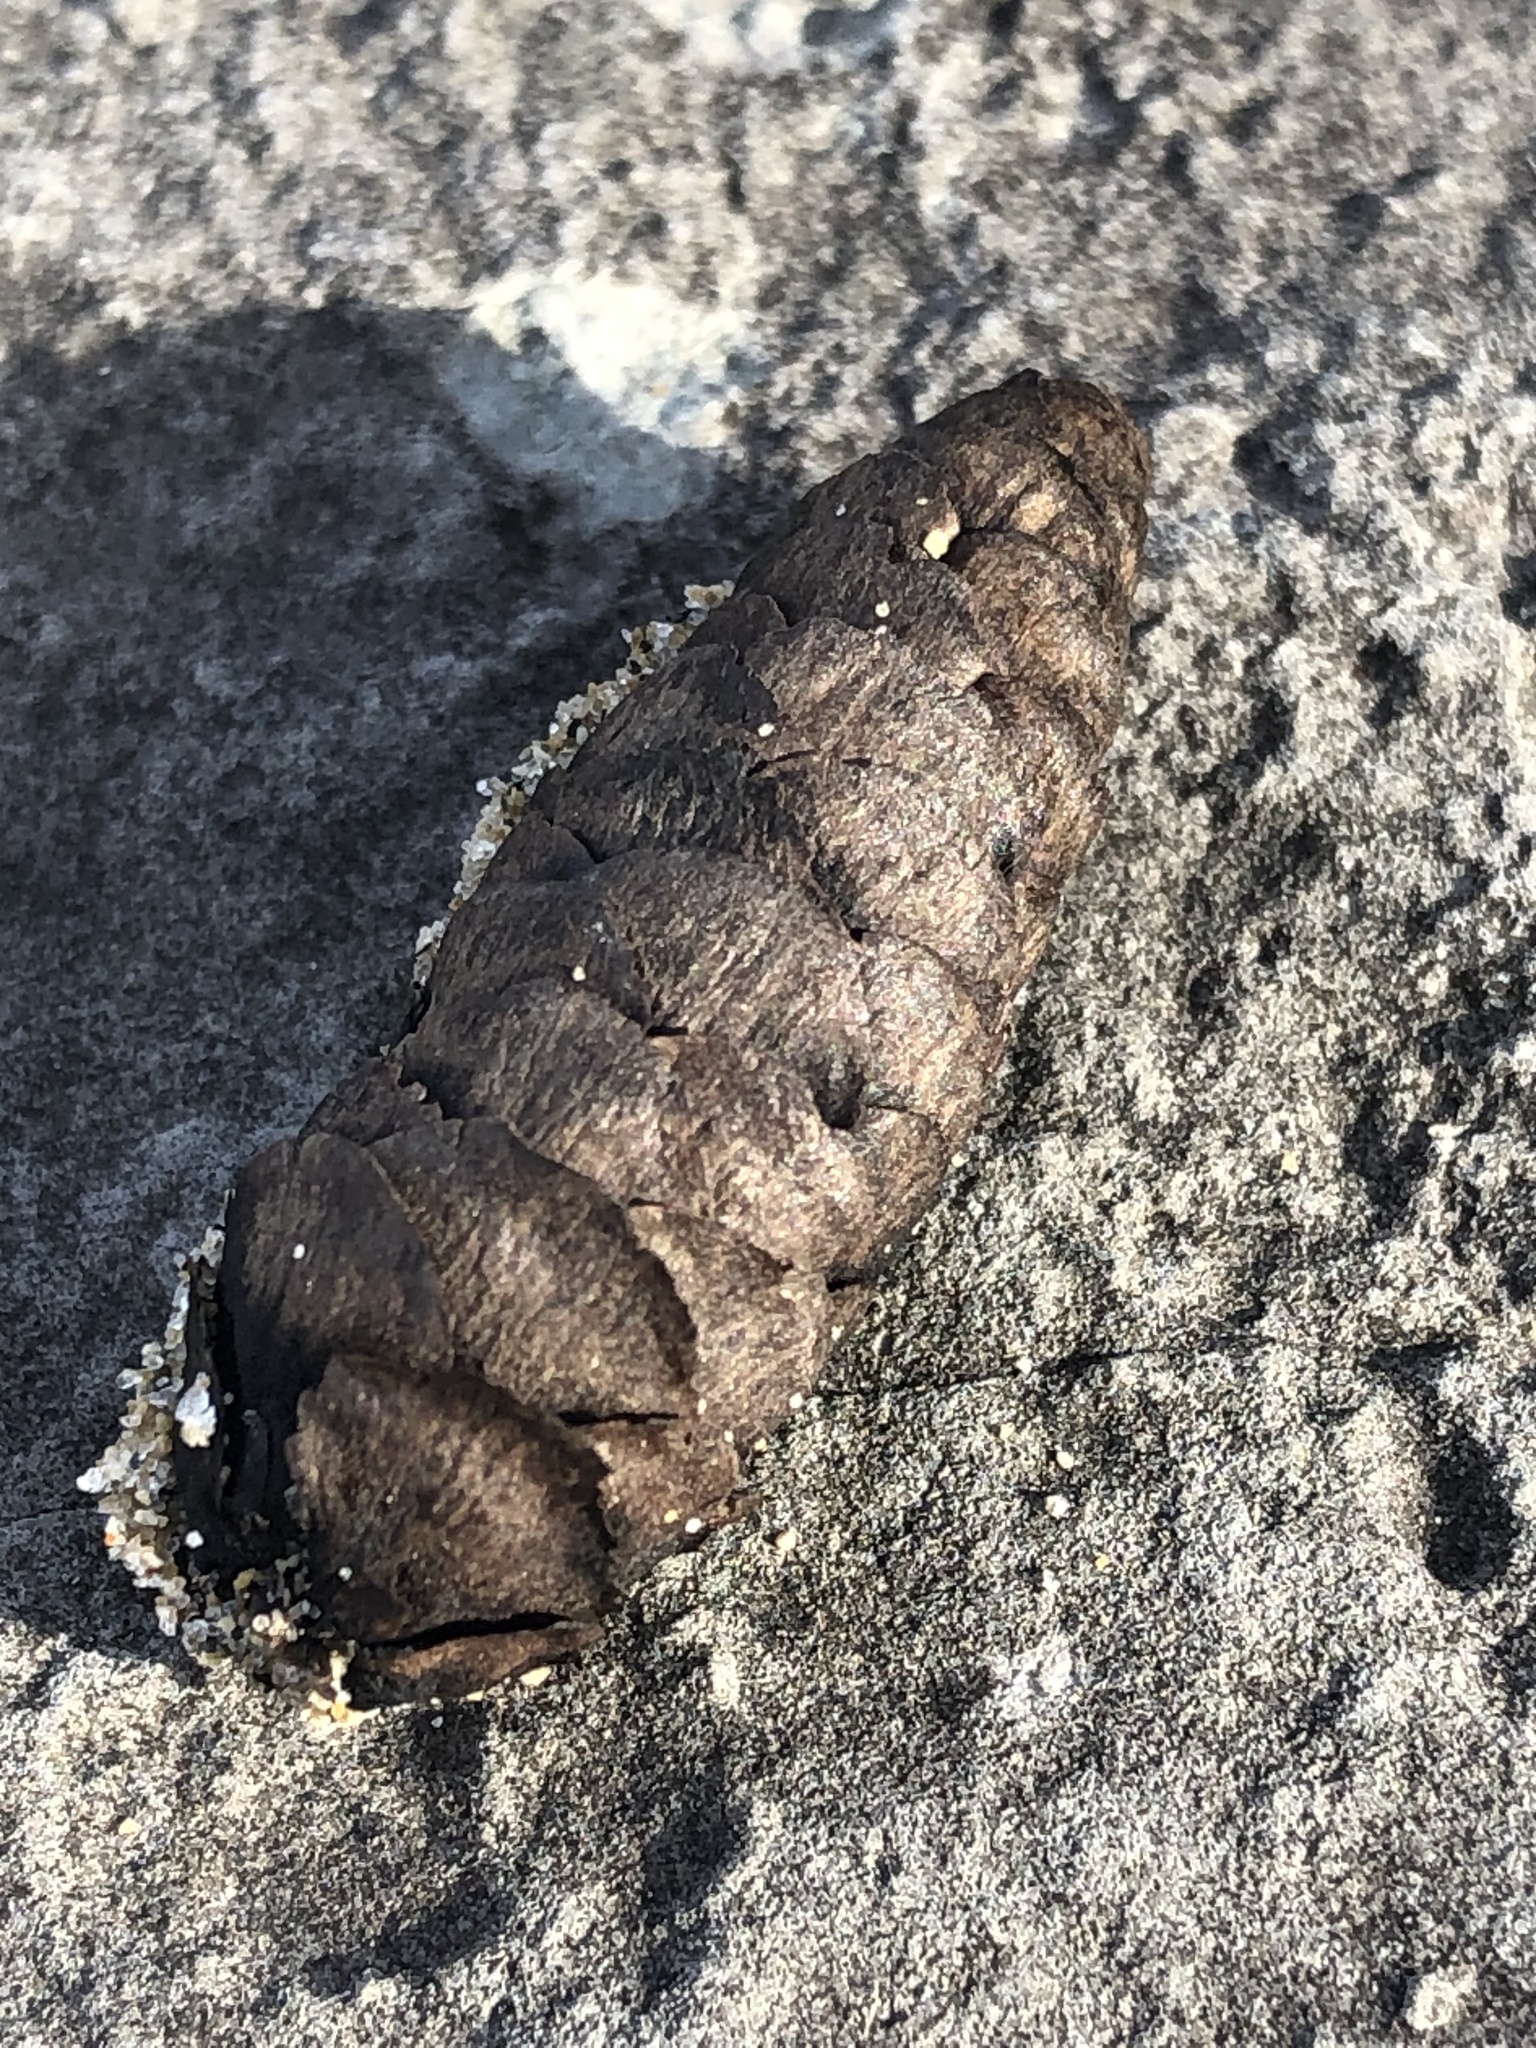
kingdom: Plantae
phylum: Tracheophyta
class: Pinopsida
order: Pinales
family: Pinaceae
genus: Picea
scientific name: Picea glauca
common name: White spruce
